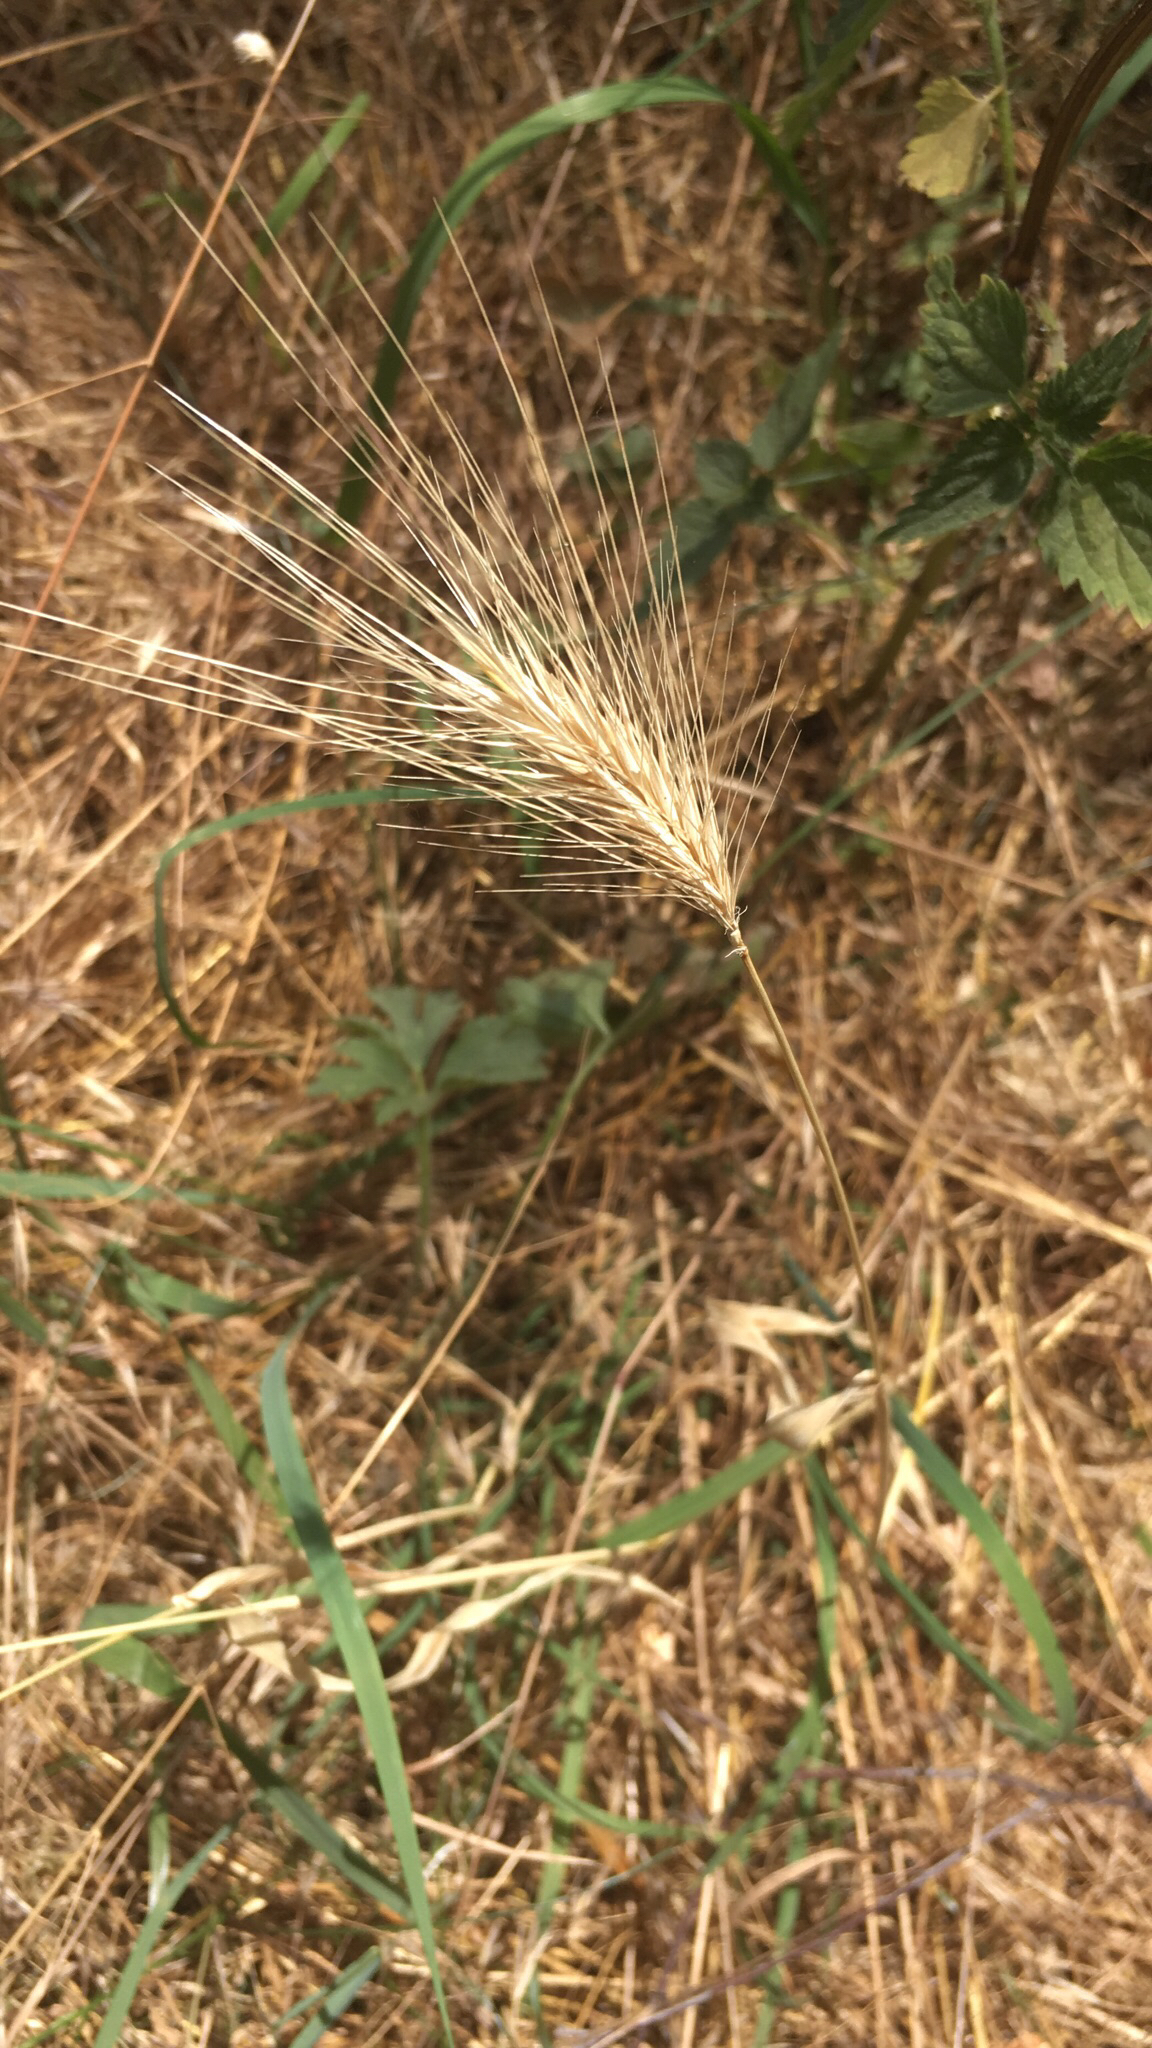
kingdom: Plantae
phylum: Tracheophyta
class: Liliopsida
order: Poales
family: Poaceae
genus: Hordeum
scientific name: Hordeum murinum
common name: Wall barley
